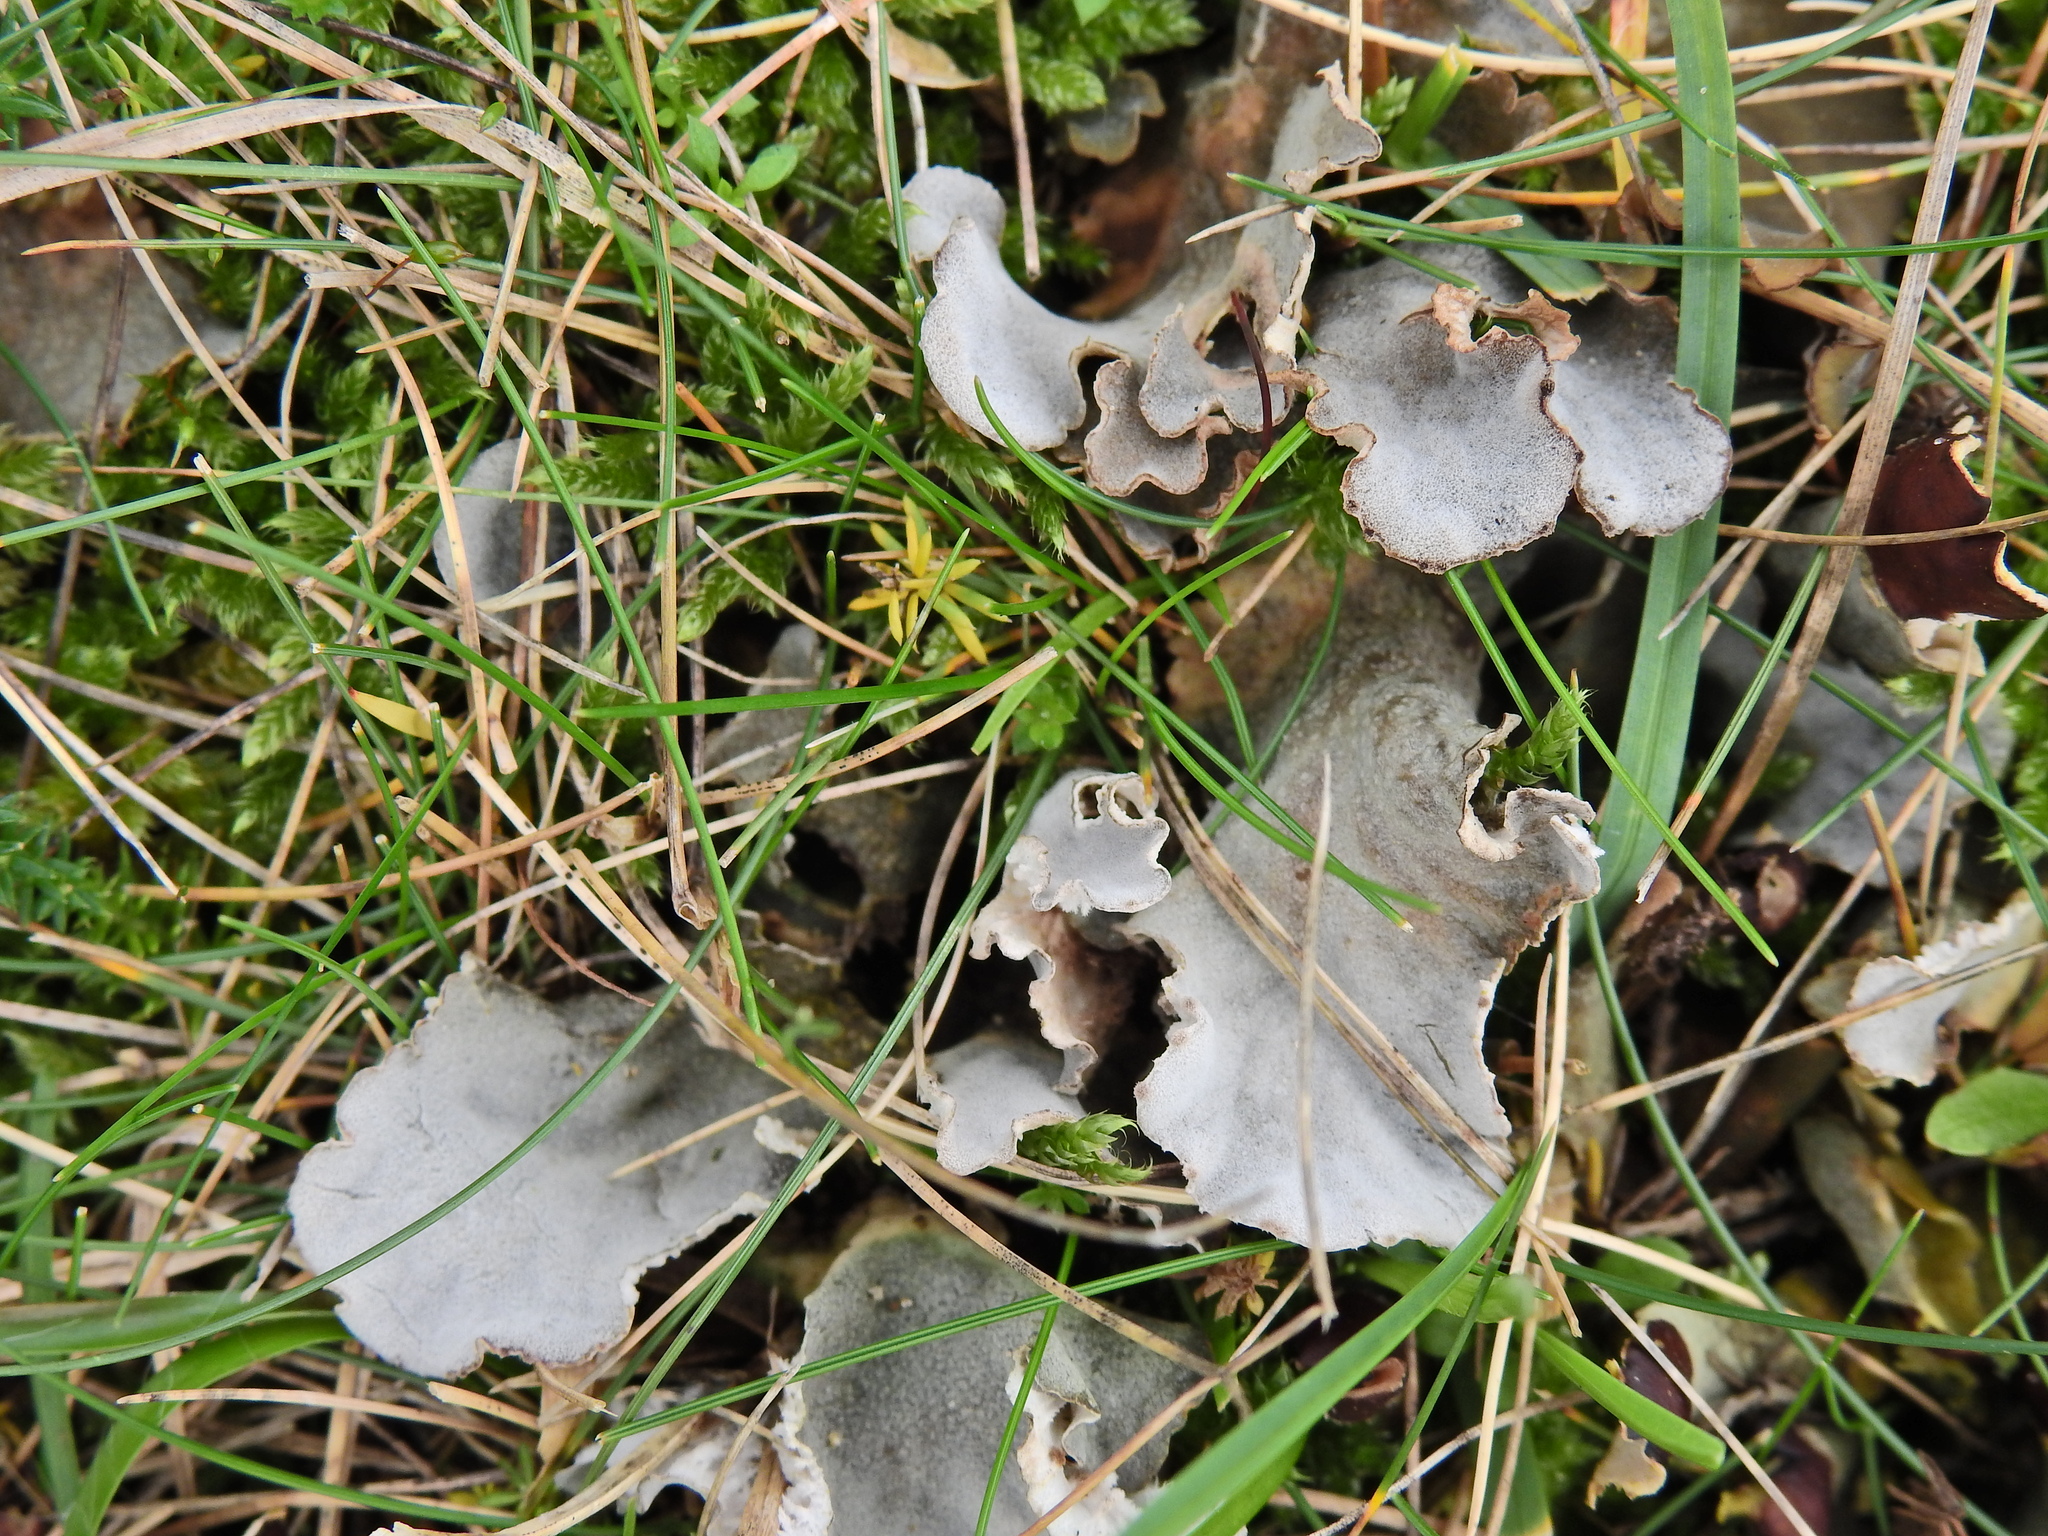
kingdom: Fungi
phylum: Ascomycota
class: Lecanoromycetes
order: Peltigerales
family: Peltigeraceae
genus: Peltigera
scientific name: Peltigera canina
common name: Dog pelt lichen
